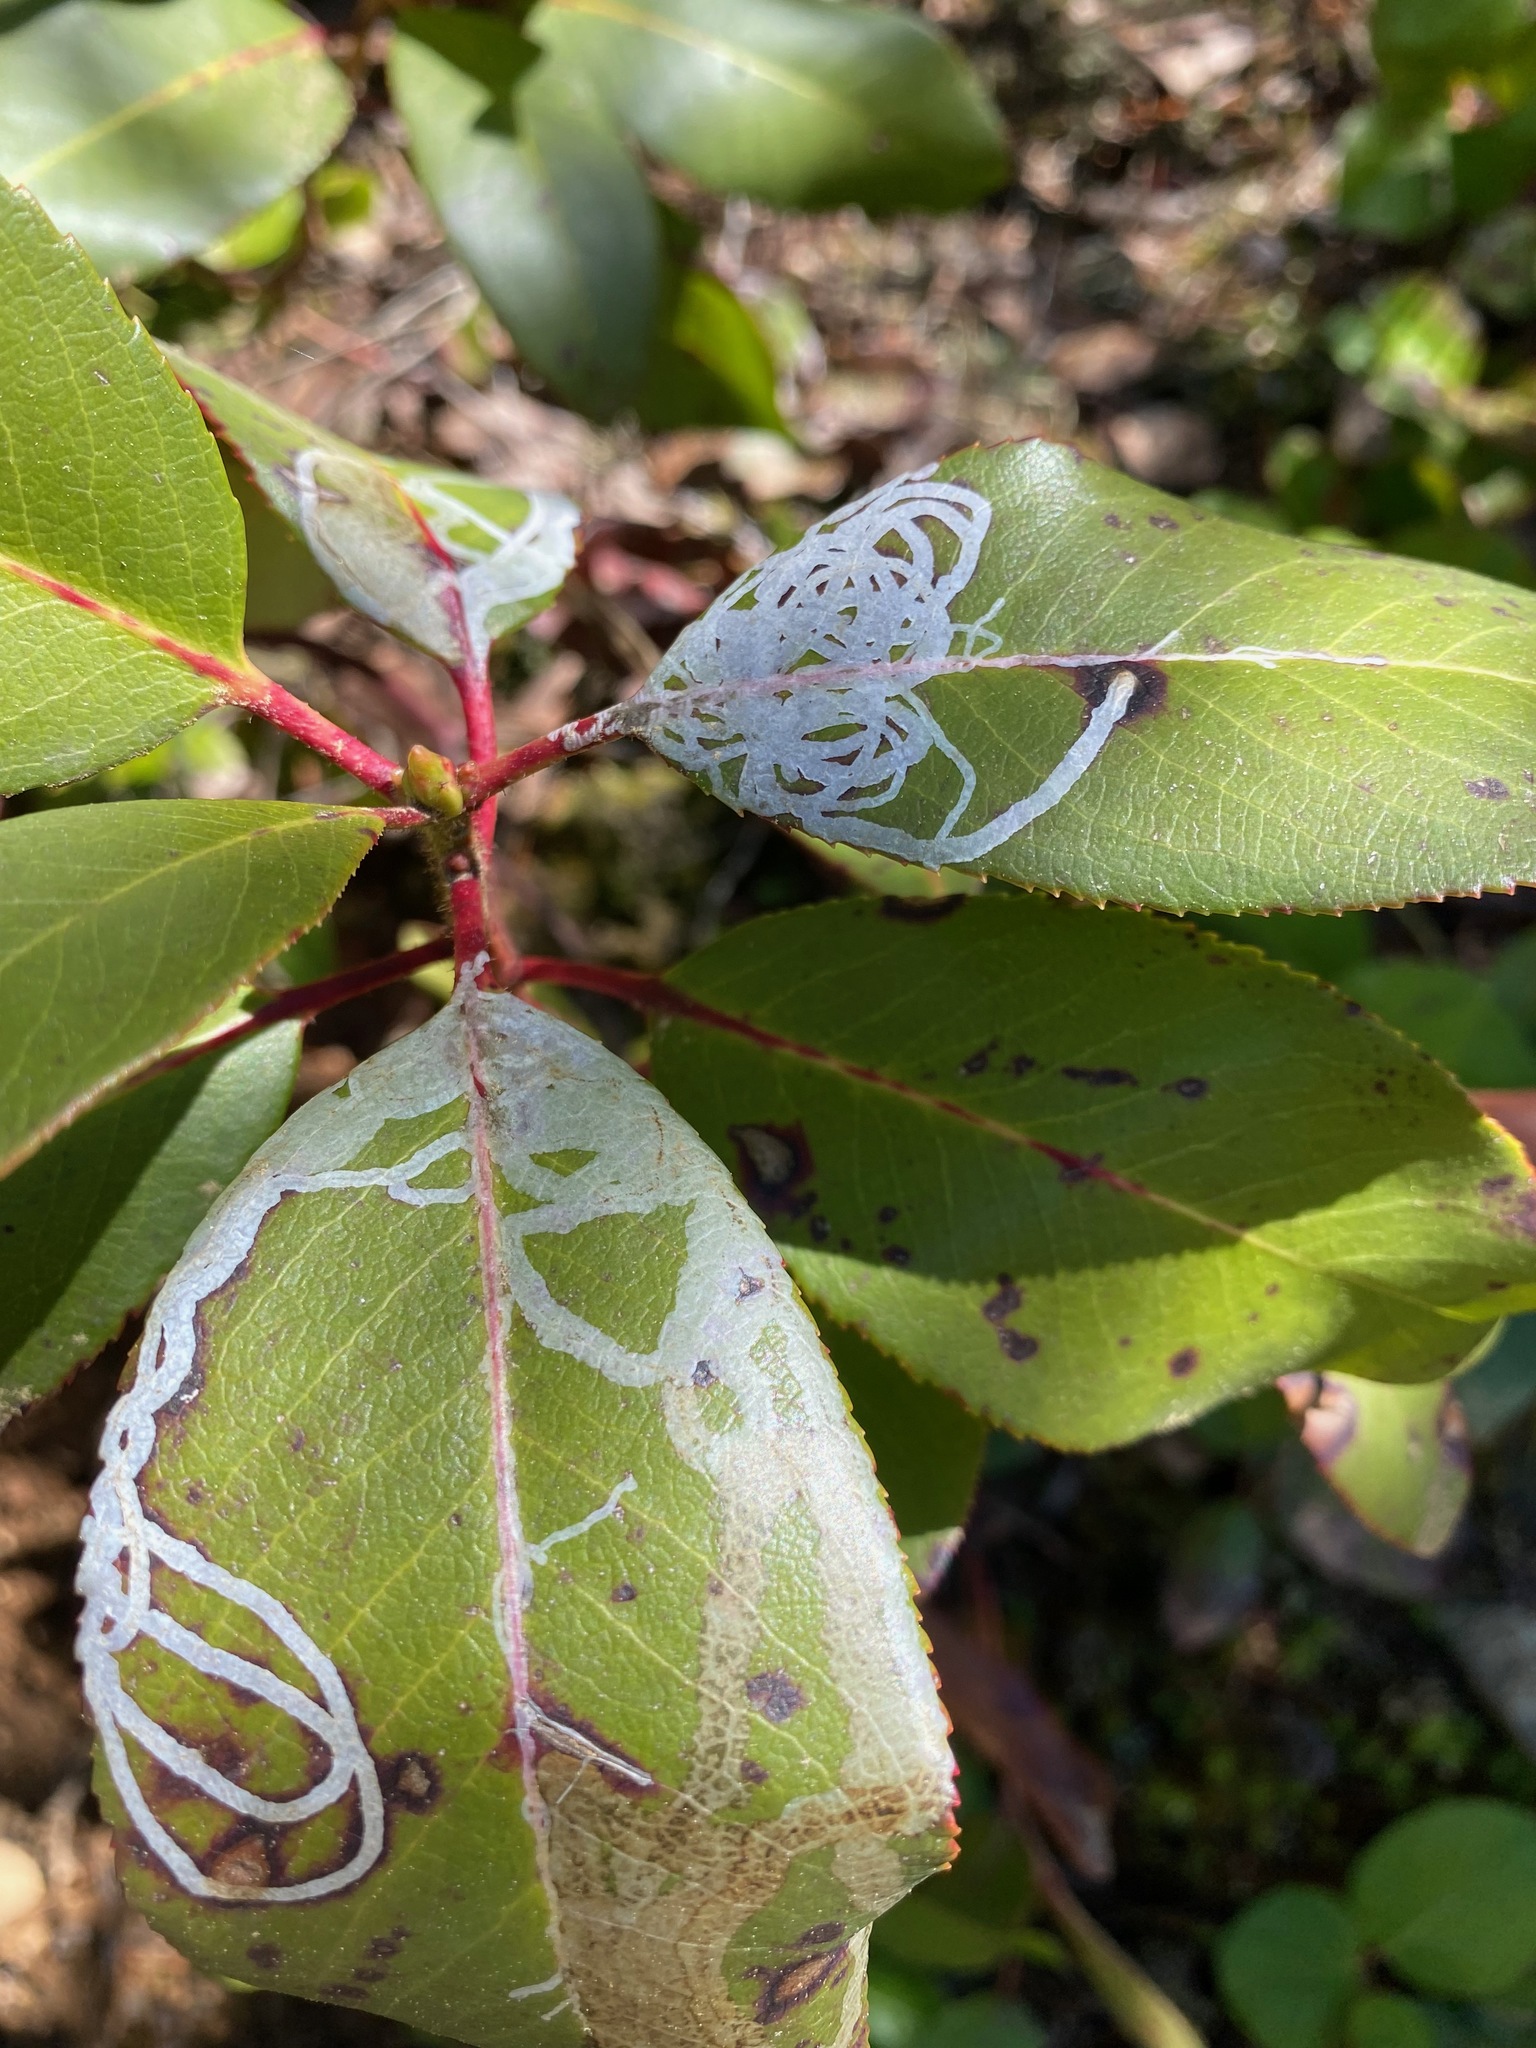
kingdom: Animalia
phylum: Arthropoda
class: Insecta
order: Lepidoptera
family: Gracillariidae
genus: Marmara
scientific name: Marmara arbutiella
